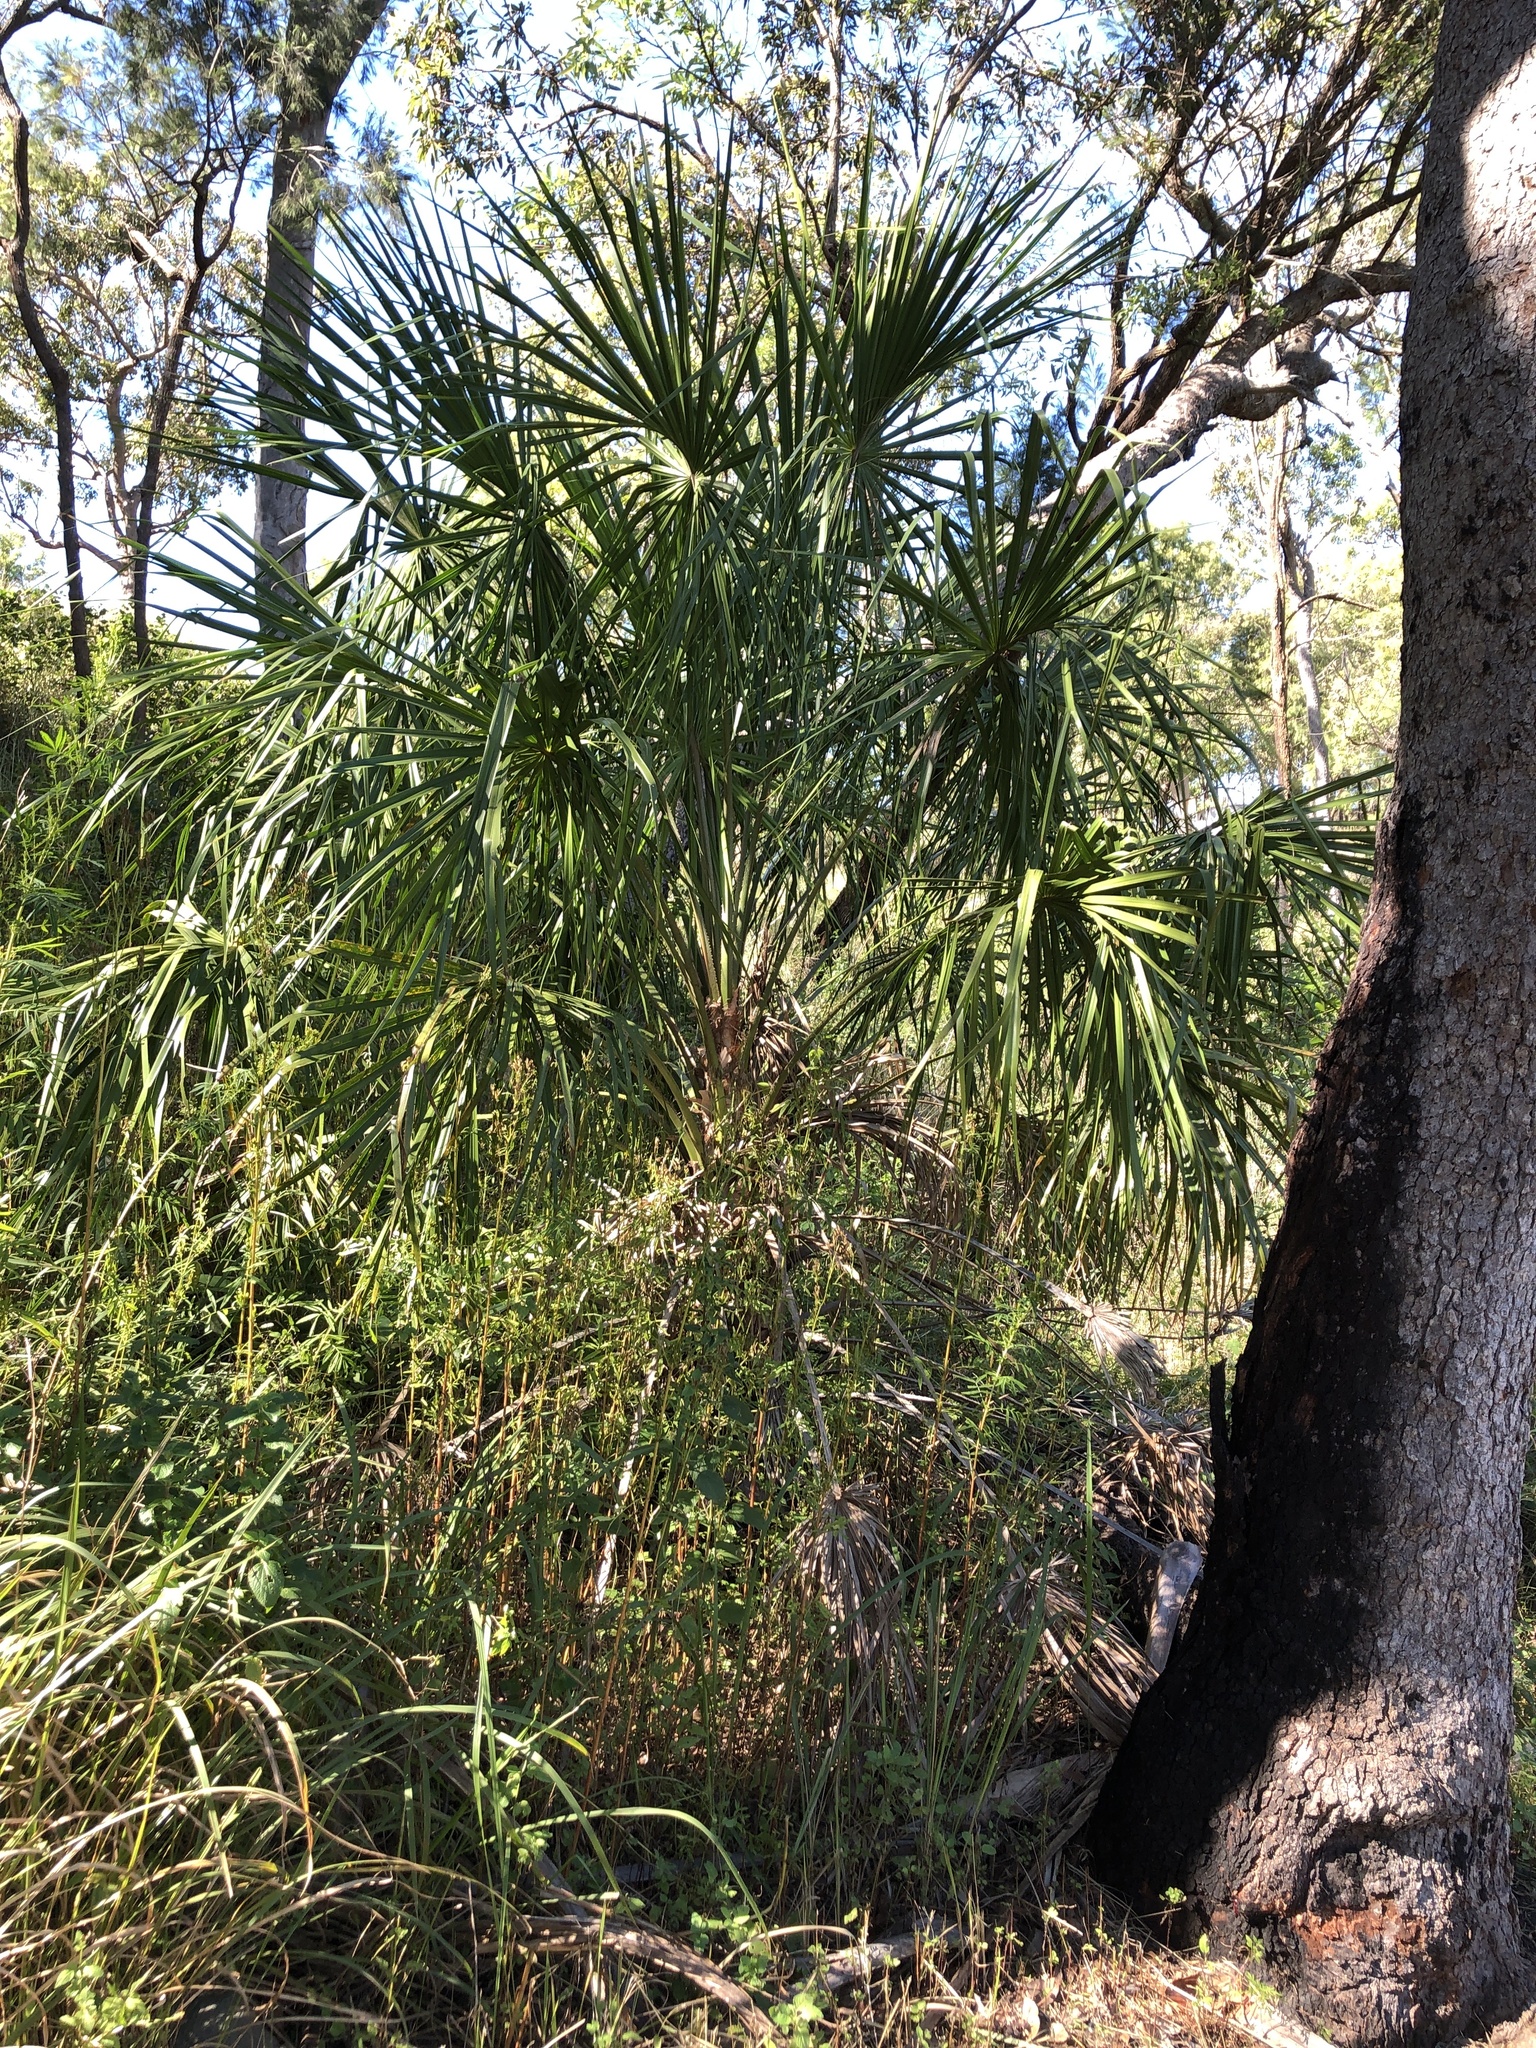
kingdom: Plantae
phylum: Tracheophyta
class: Liliopsida
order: Arecales
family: Arecaceae
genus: Livistona
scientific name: Livistona decora
